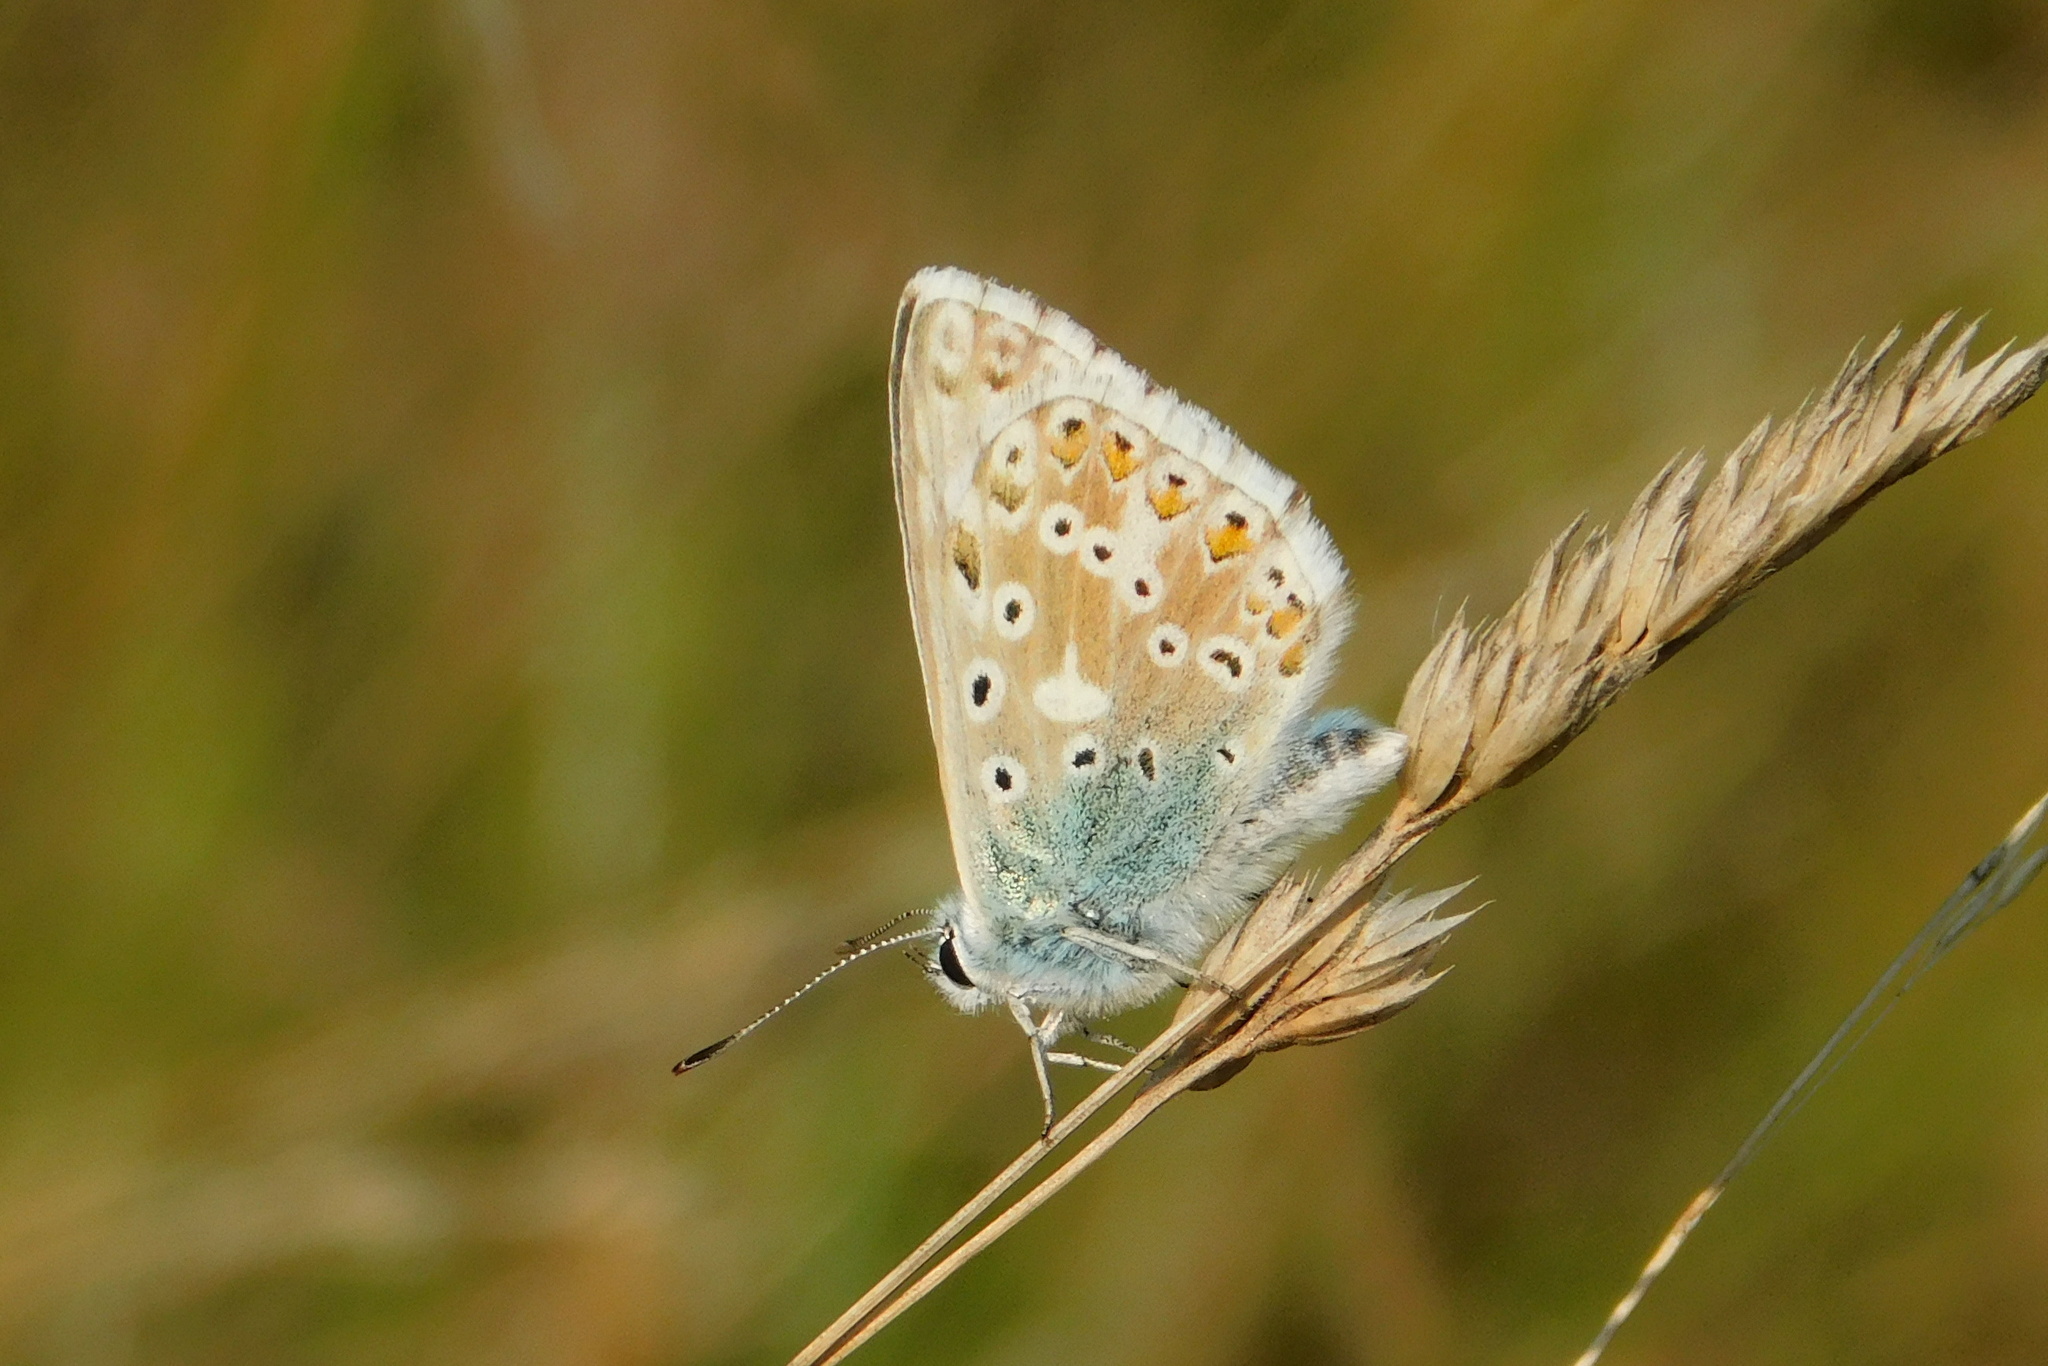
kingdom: Animalia
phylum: Arthropoda
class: Insecta
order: Lepidoptera
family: Lycaenidae
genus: Lysandra
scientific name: Lysandra coridon
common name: Chalkhill blue
